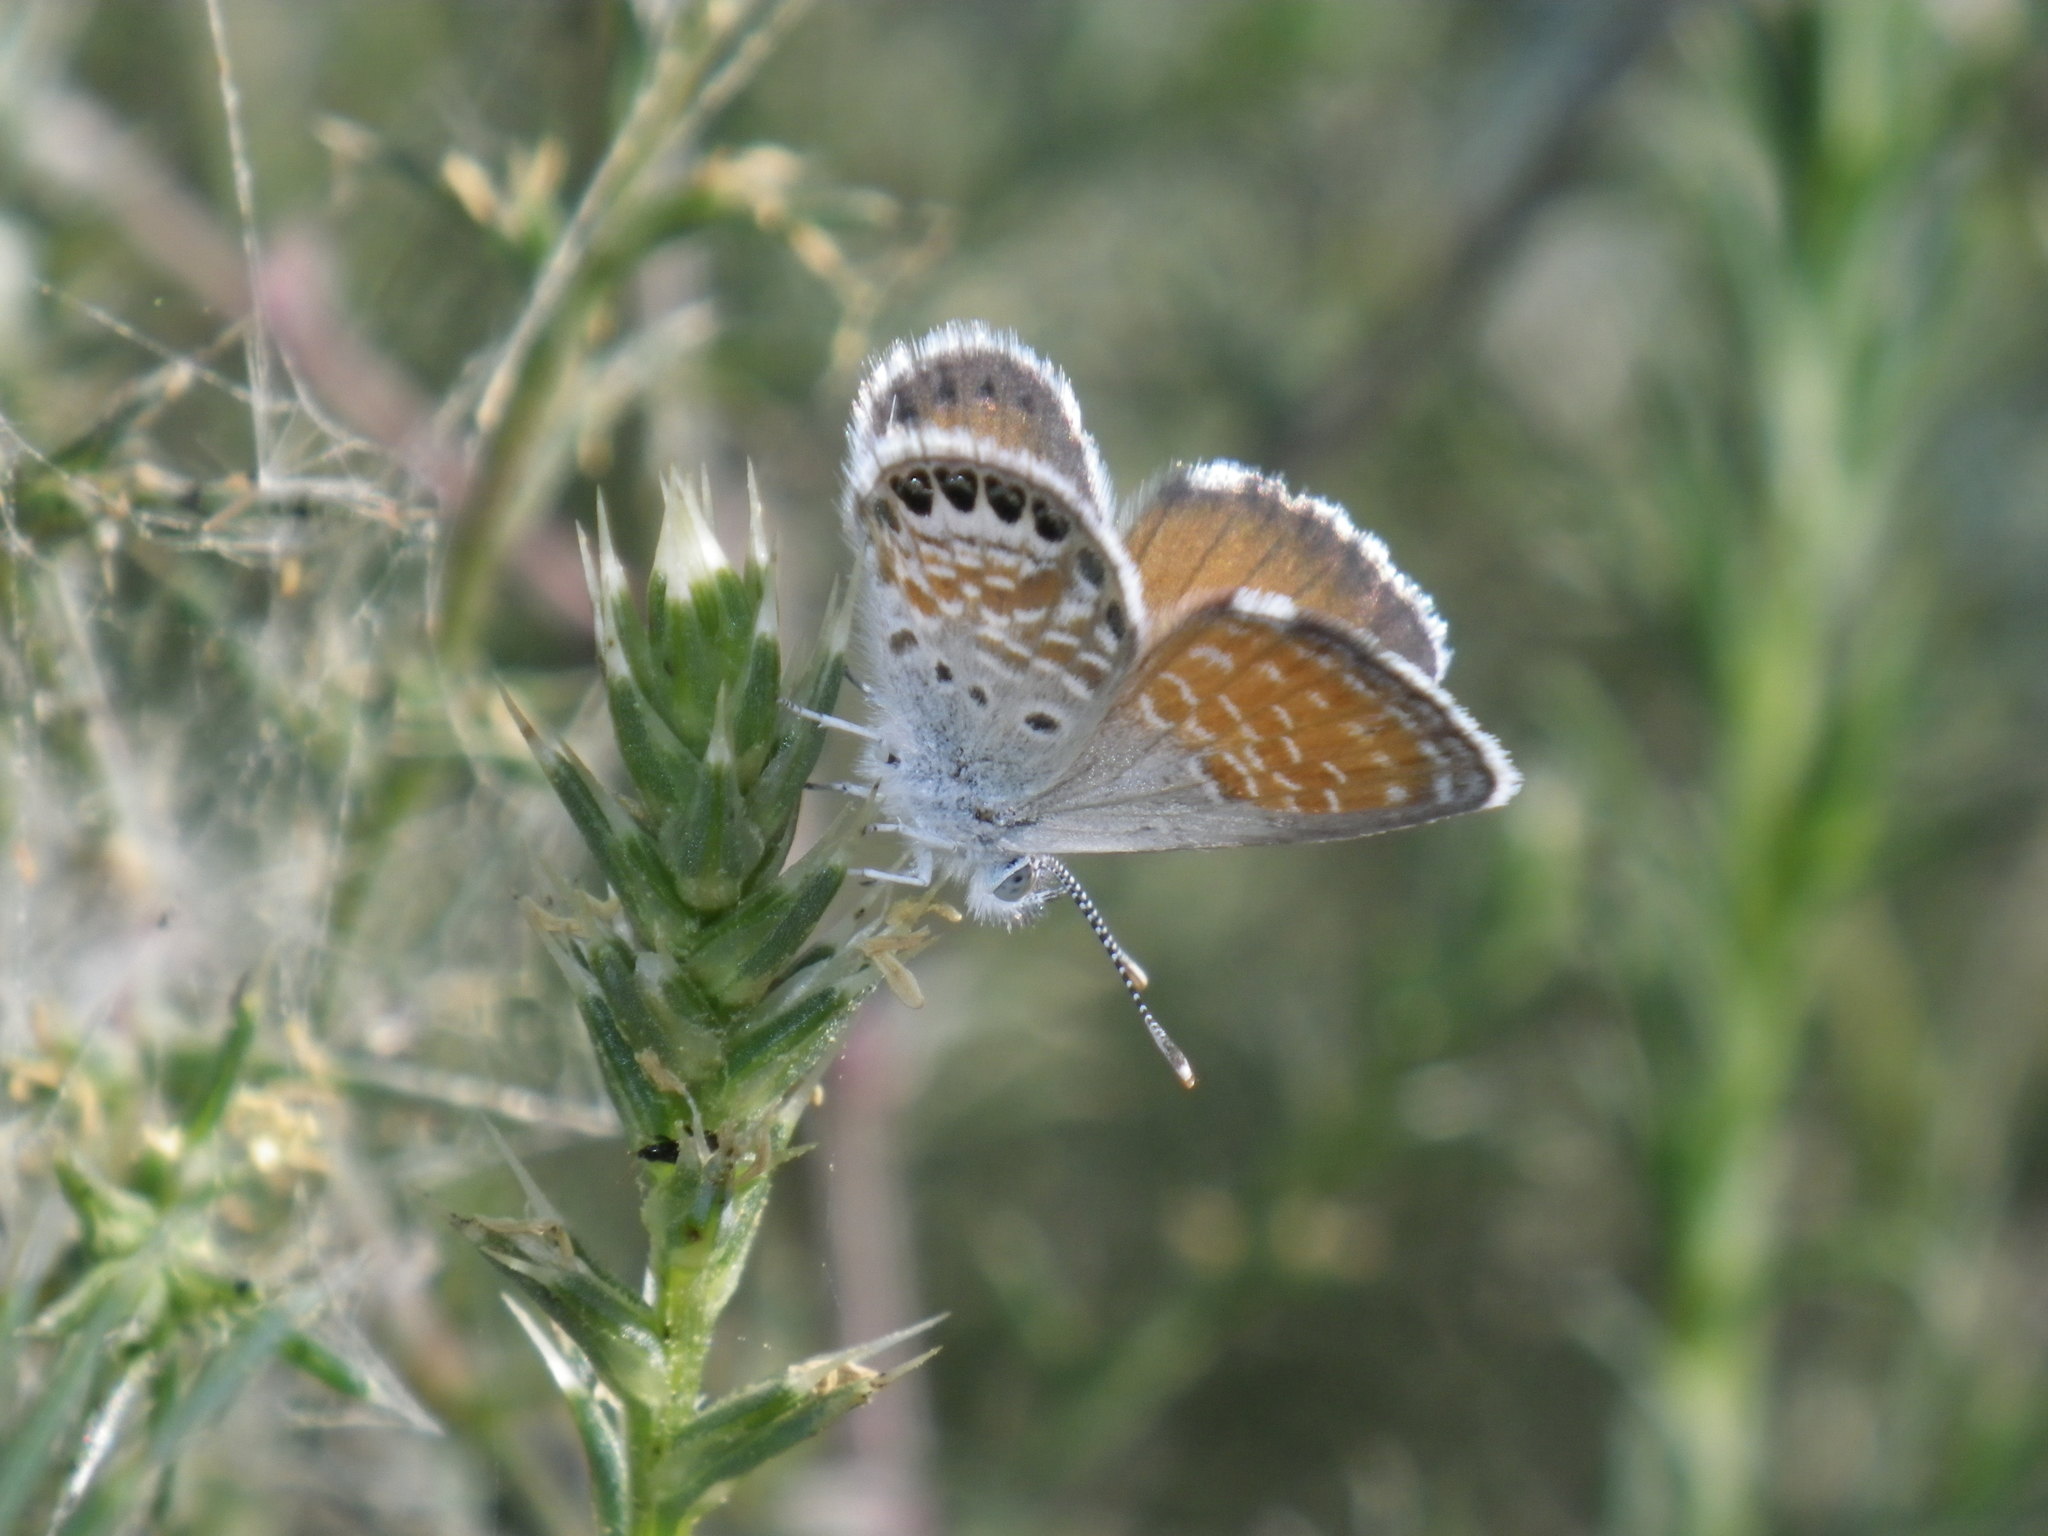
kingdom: Animalia
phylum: Arthropoda
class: Insecta
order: Lepidoptera
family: Lycaenidae
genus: Brephidium
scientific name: Brephidium exilis
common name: Pygmy blue
